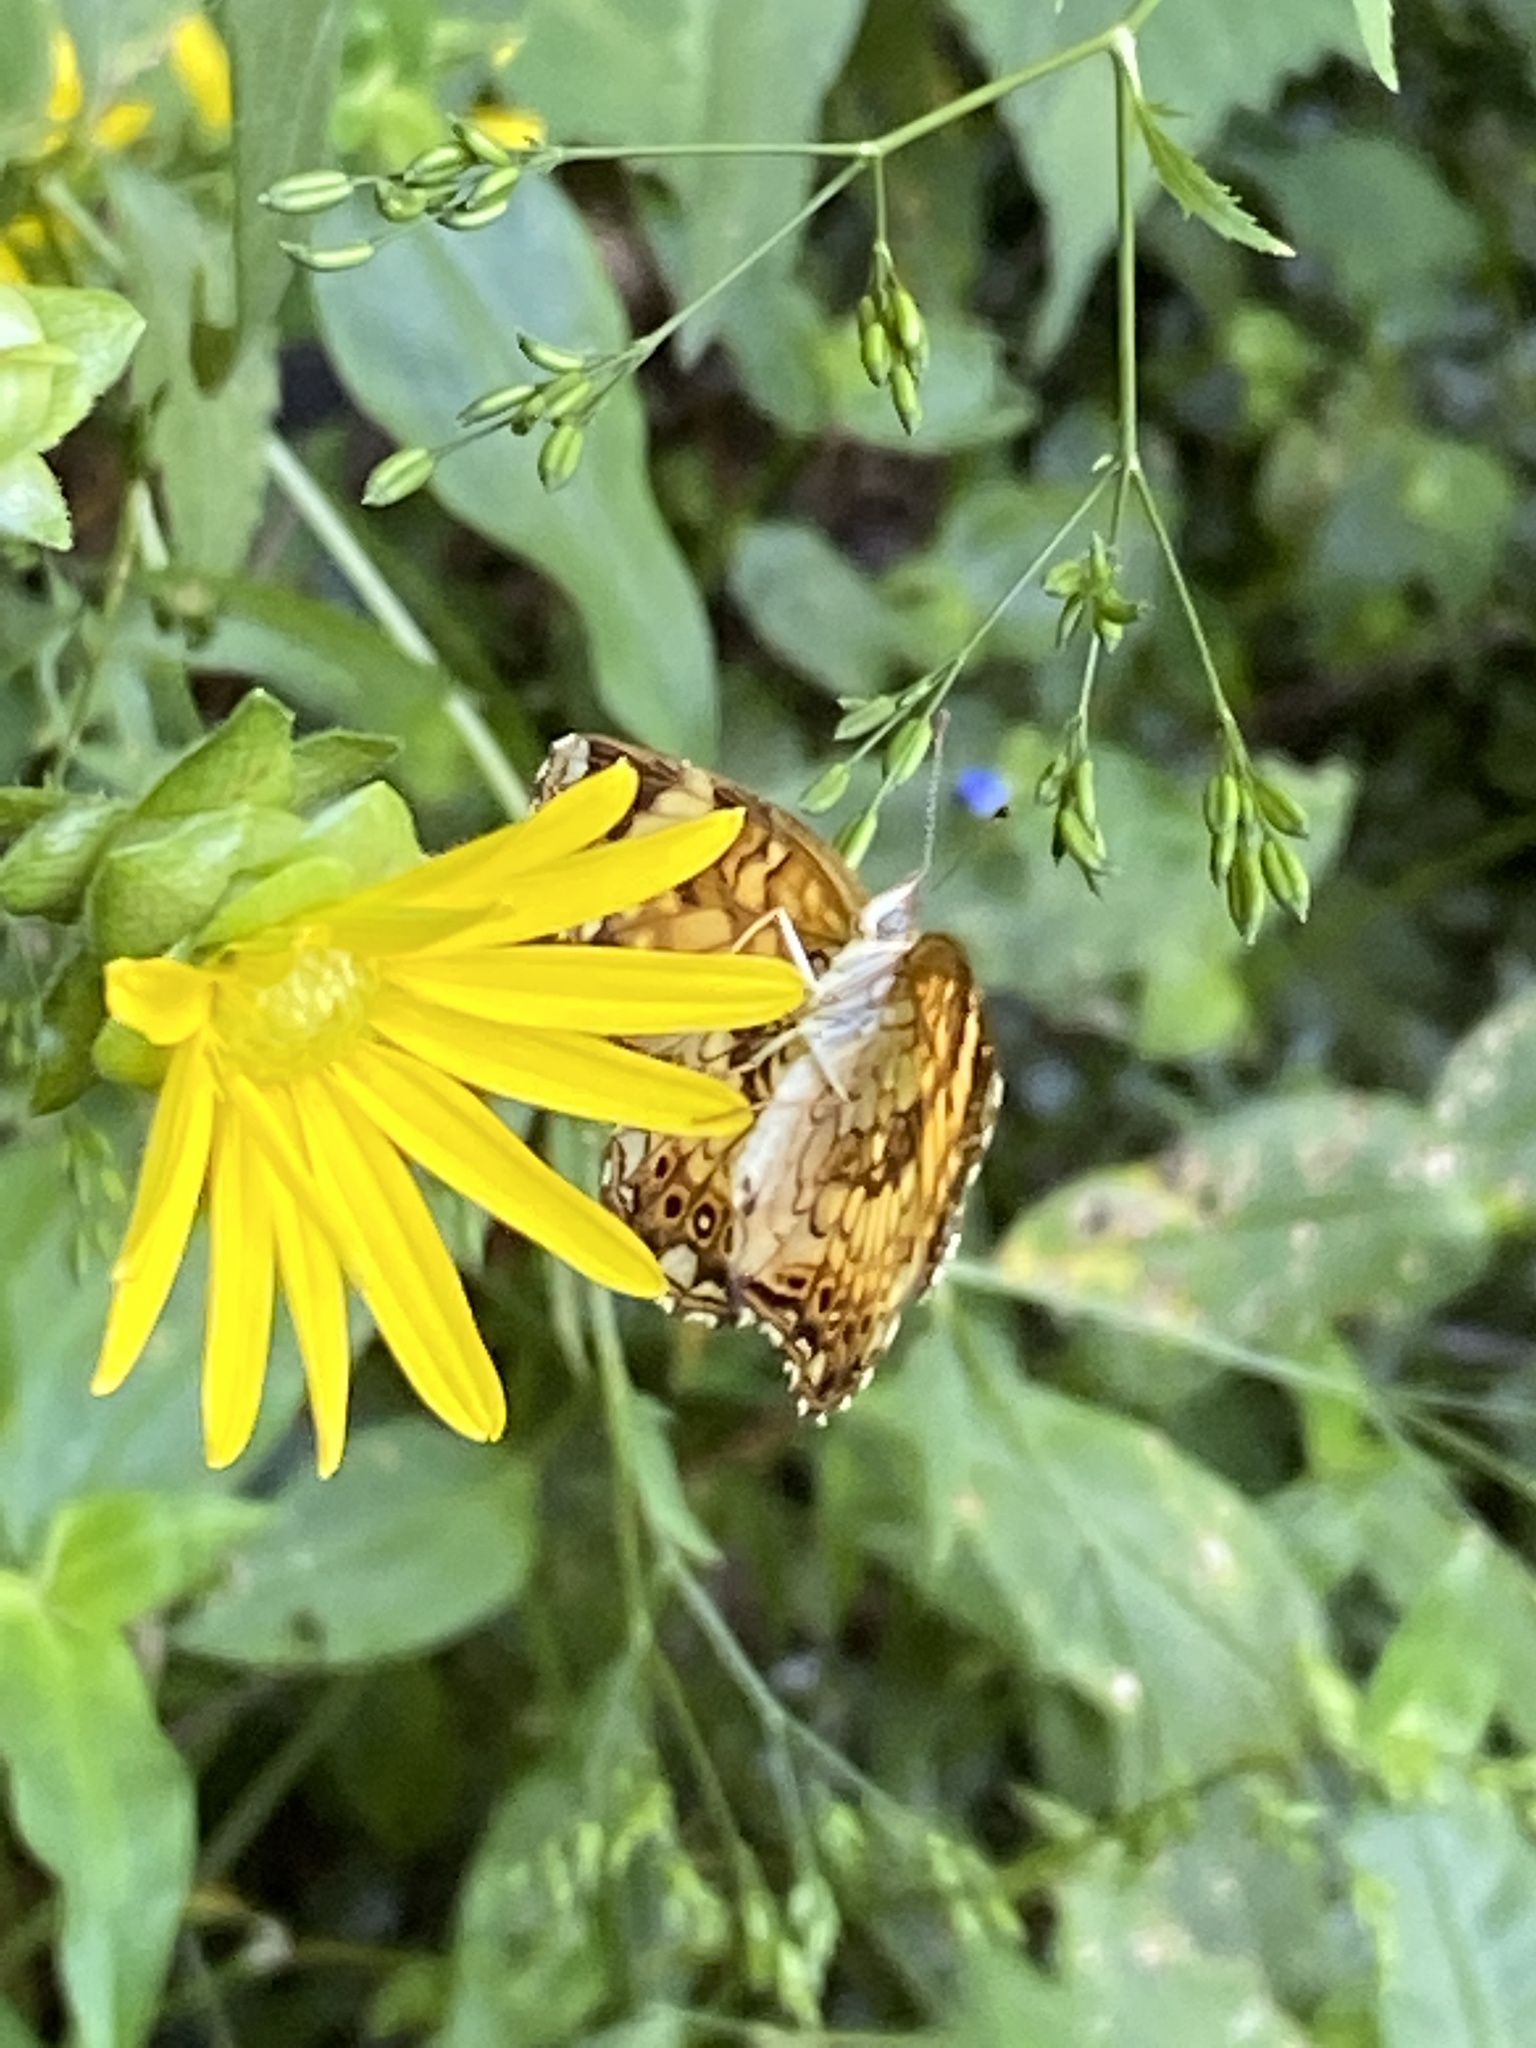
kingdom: Animalia
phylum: Arthropoda
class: Insecta
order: Lepidoptera
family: Nymphalidae
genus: Chlosyne
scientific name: Chlosyne nycteis
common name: Silvery checkerspot
